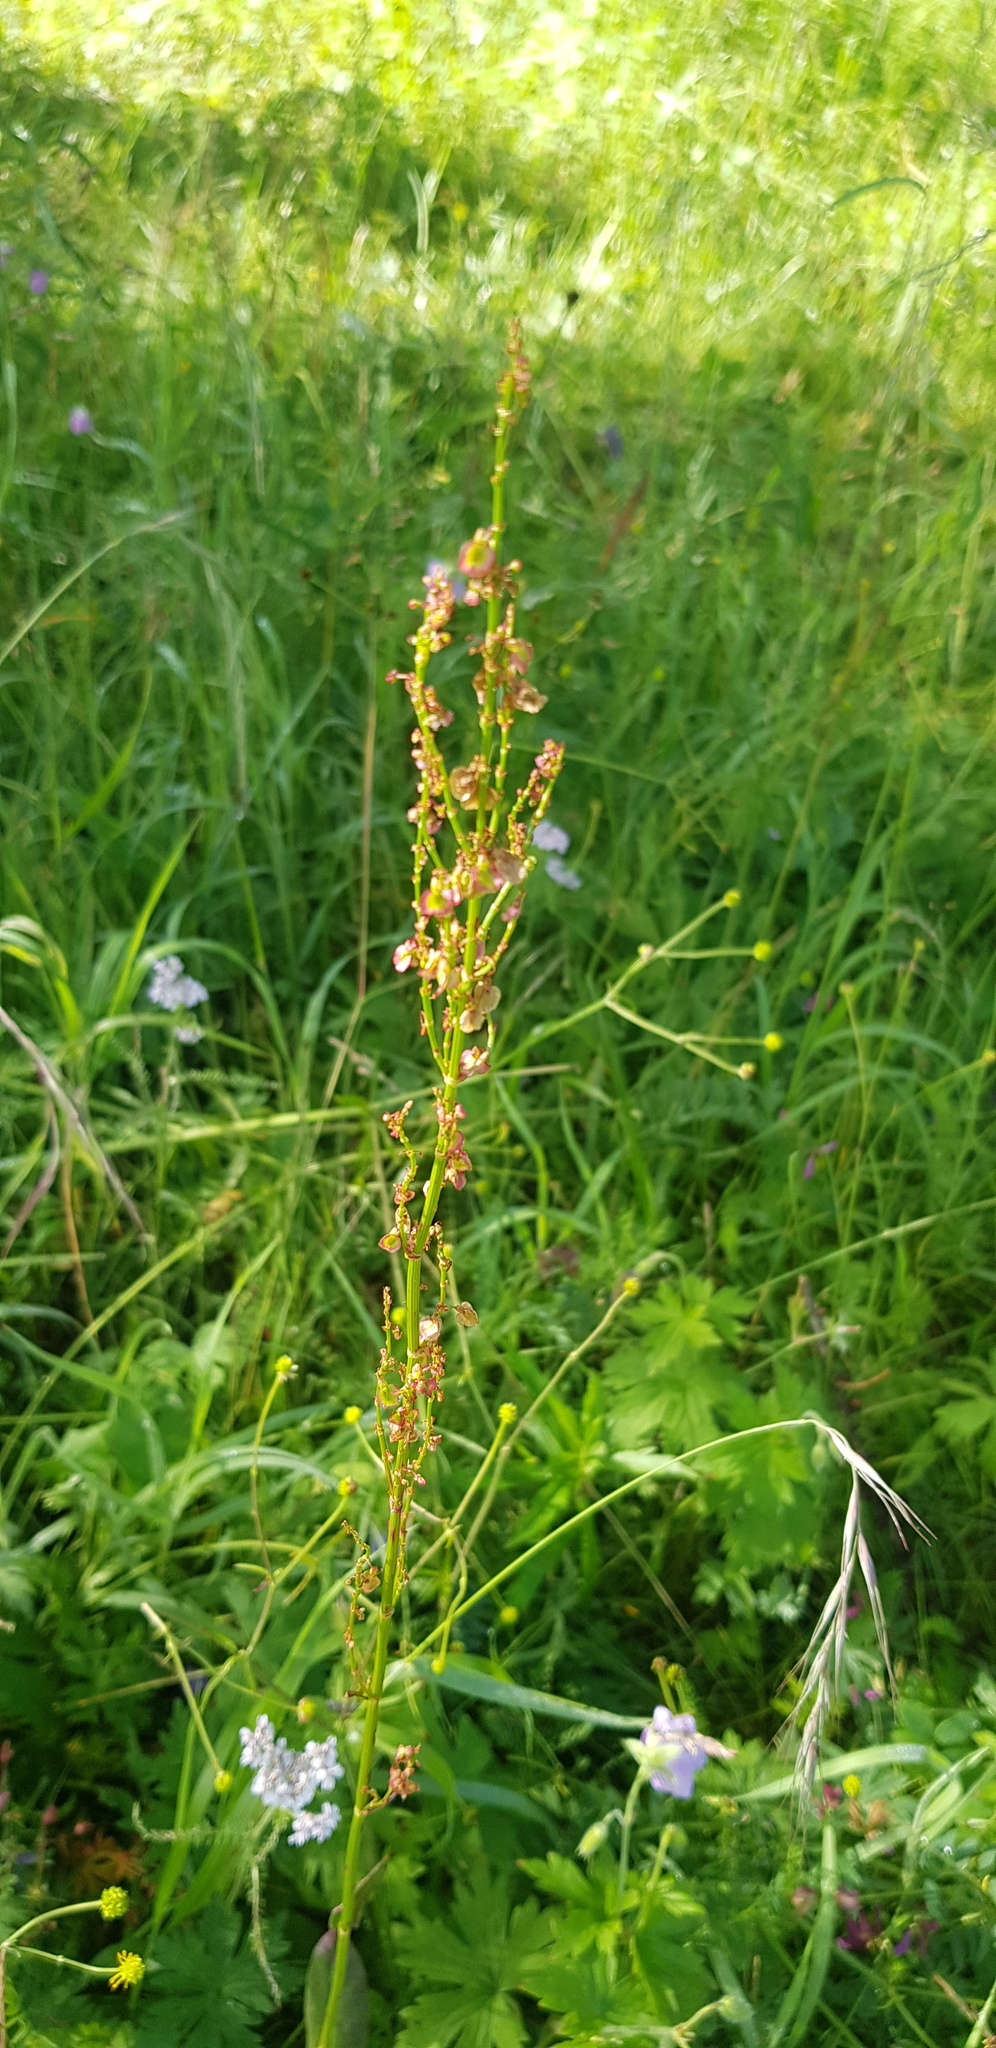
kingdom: Plantae
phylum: Tracheophyta
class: Magnoliopsida
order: Caryophyllales
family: Polygonaceae
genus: Rumex
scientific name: Rumex acetosa
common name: Garden sorrel
